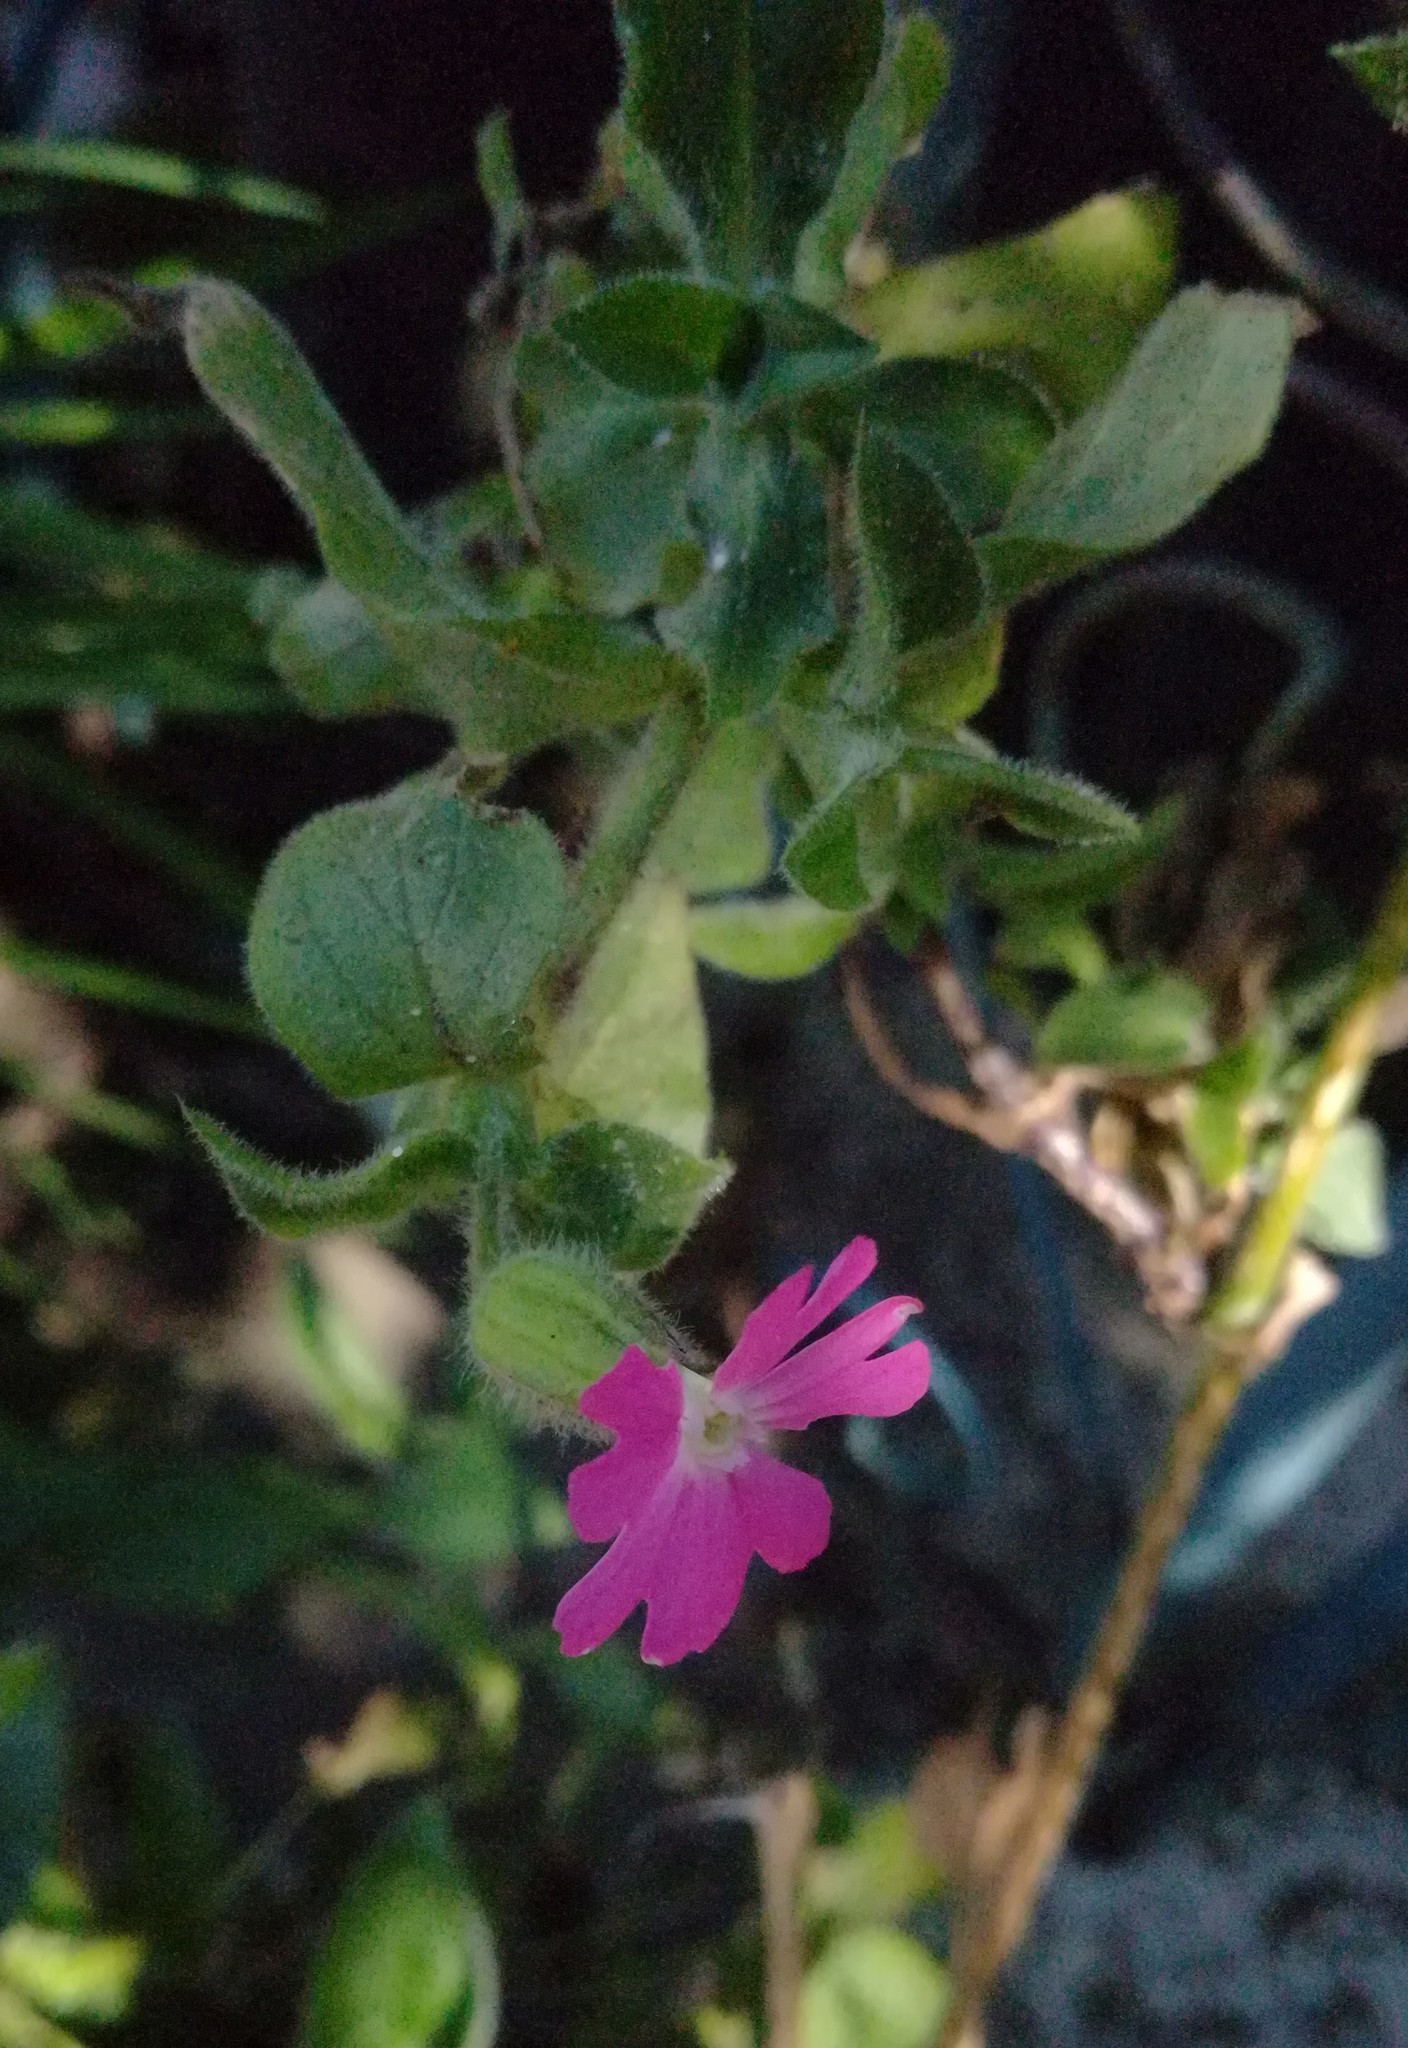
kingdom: Plantae
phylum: Tracheophyta
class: Magnoliopsida
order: Caryophyllales
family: Caryophyllaceae
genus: Silene
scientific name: Silene dioica
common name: Red campion
